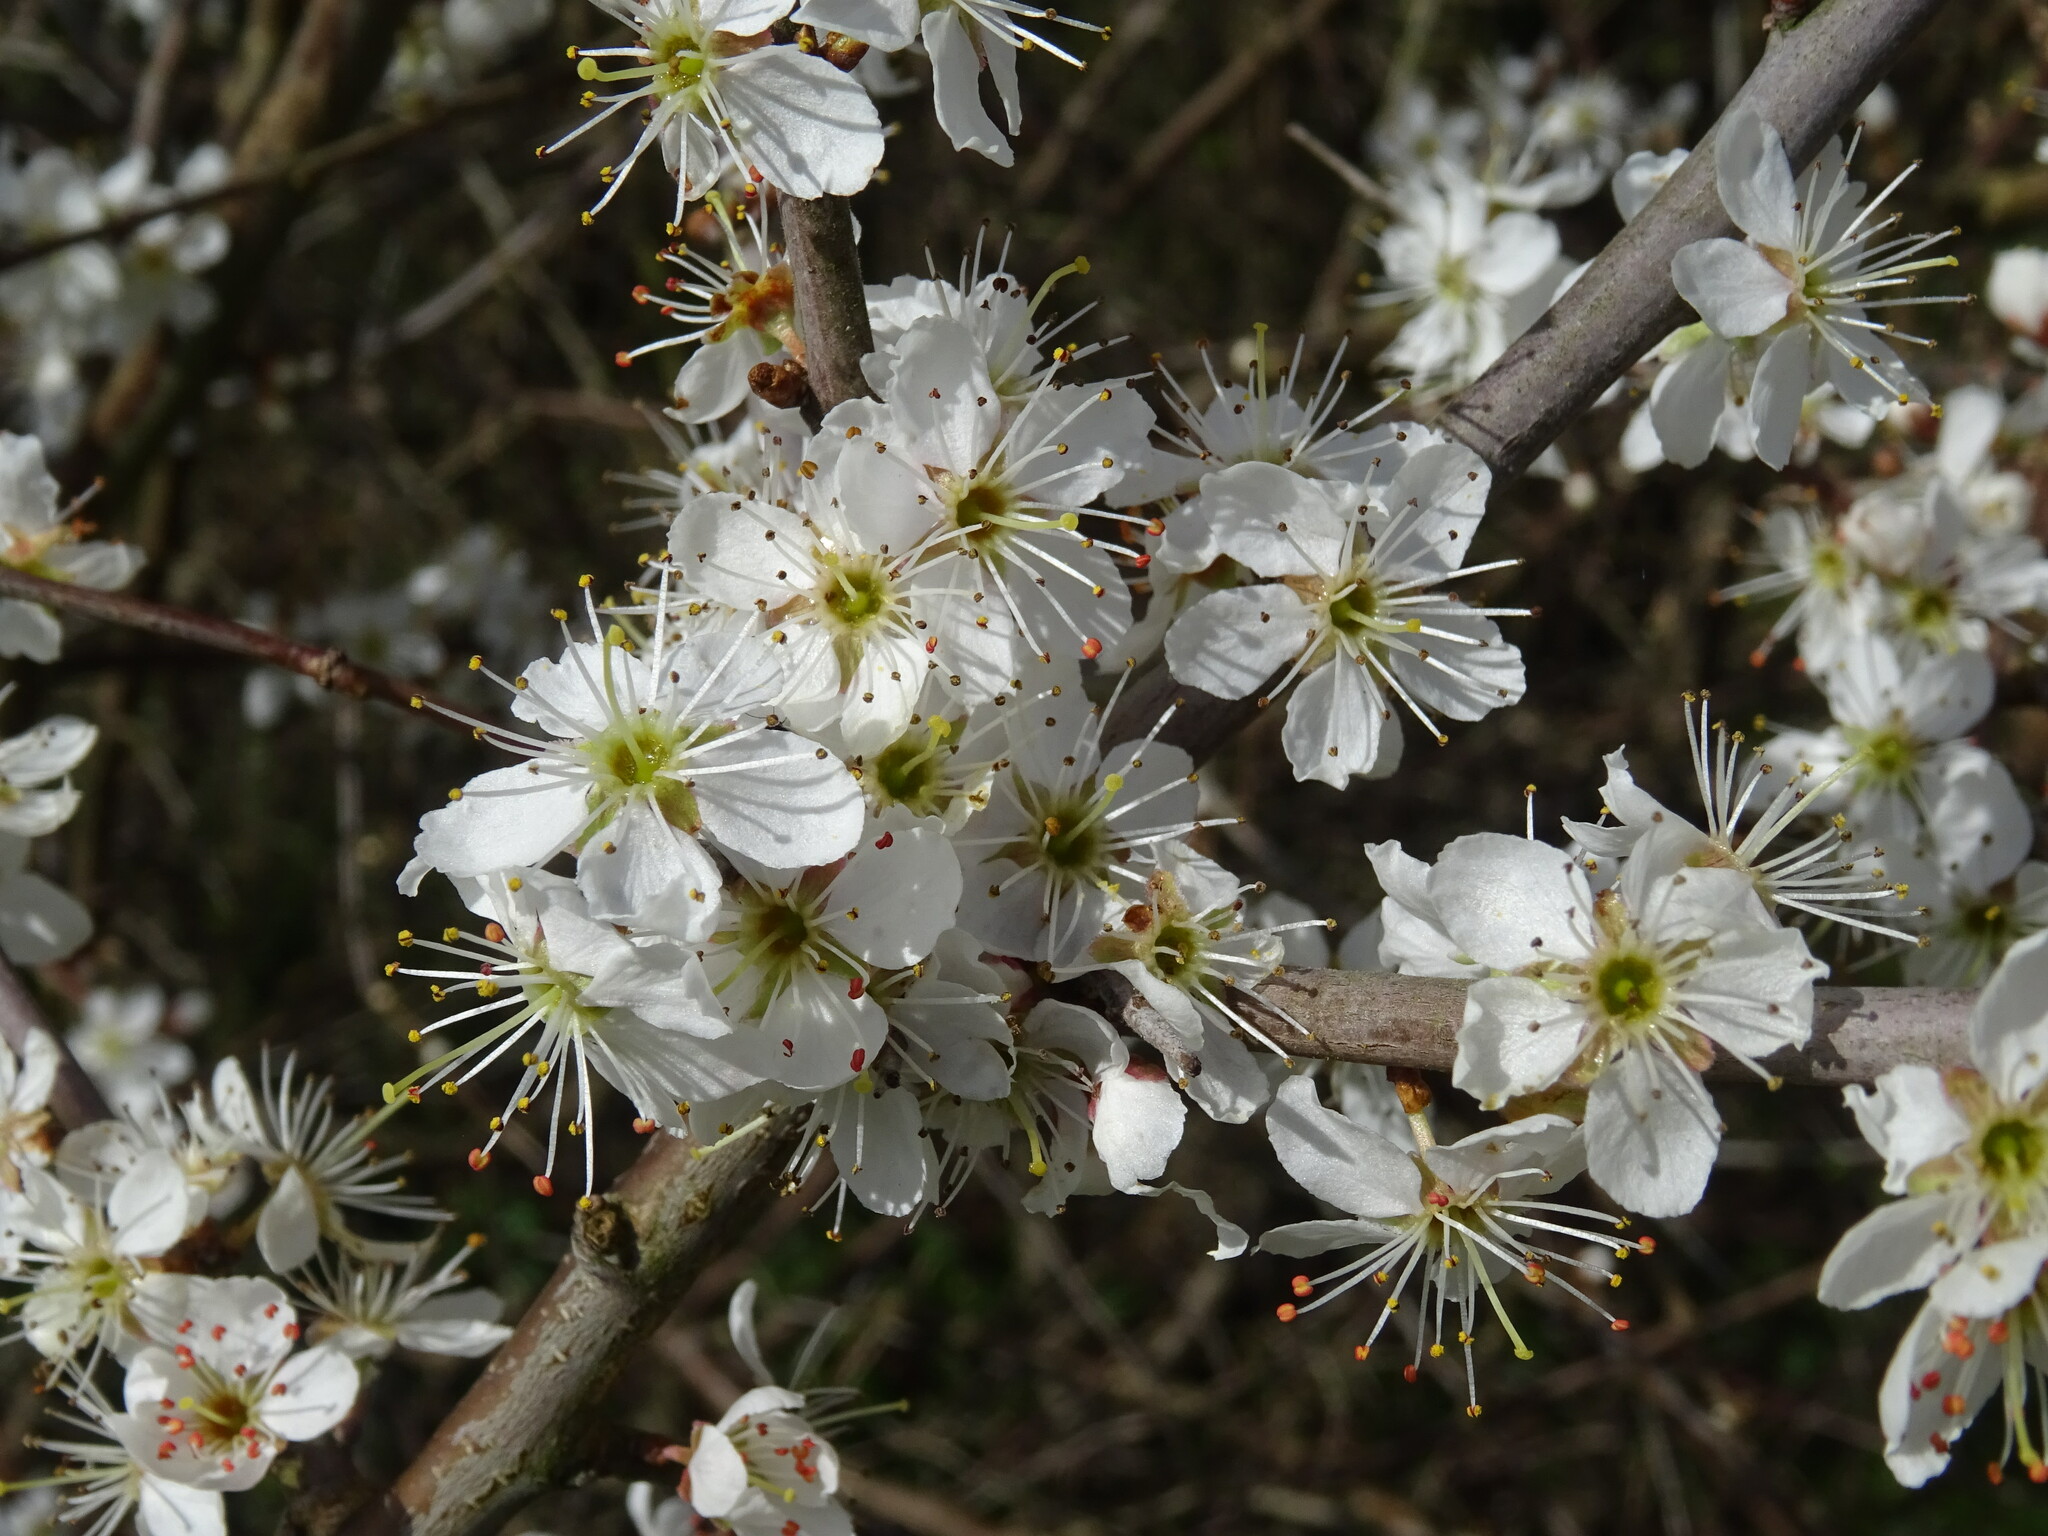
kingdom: Plantae
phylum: Tracheophyta
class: Magnoliopsida
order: Rosales
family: Rosaceae
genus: Prunus
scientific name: Prunus spinosa
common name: Blackthorn
